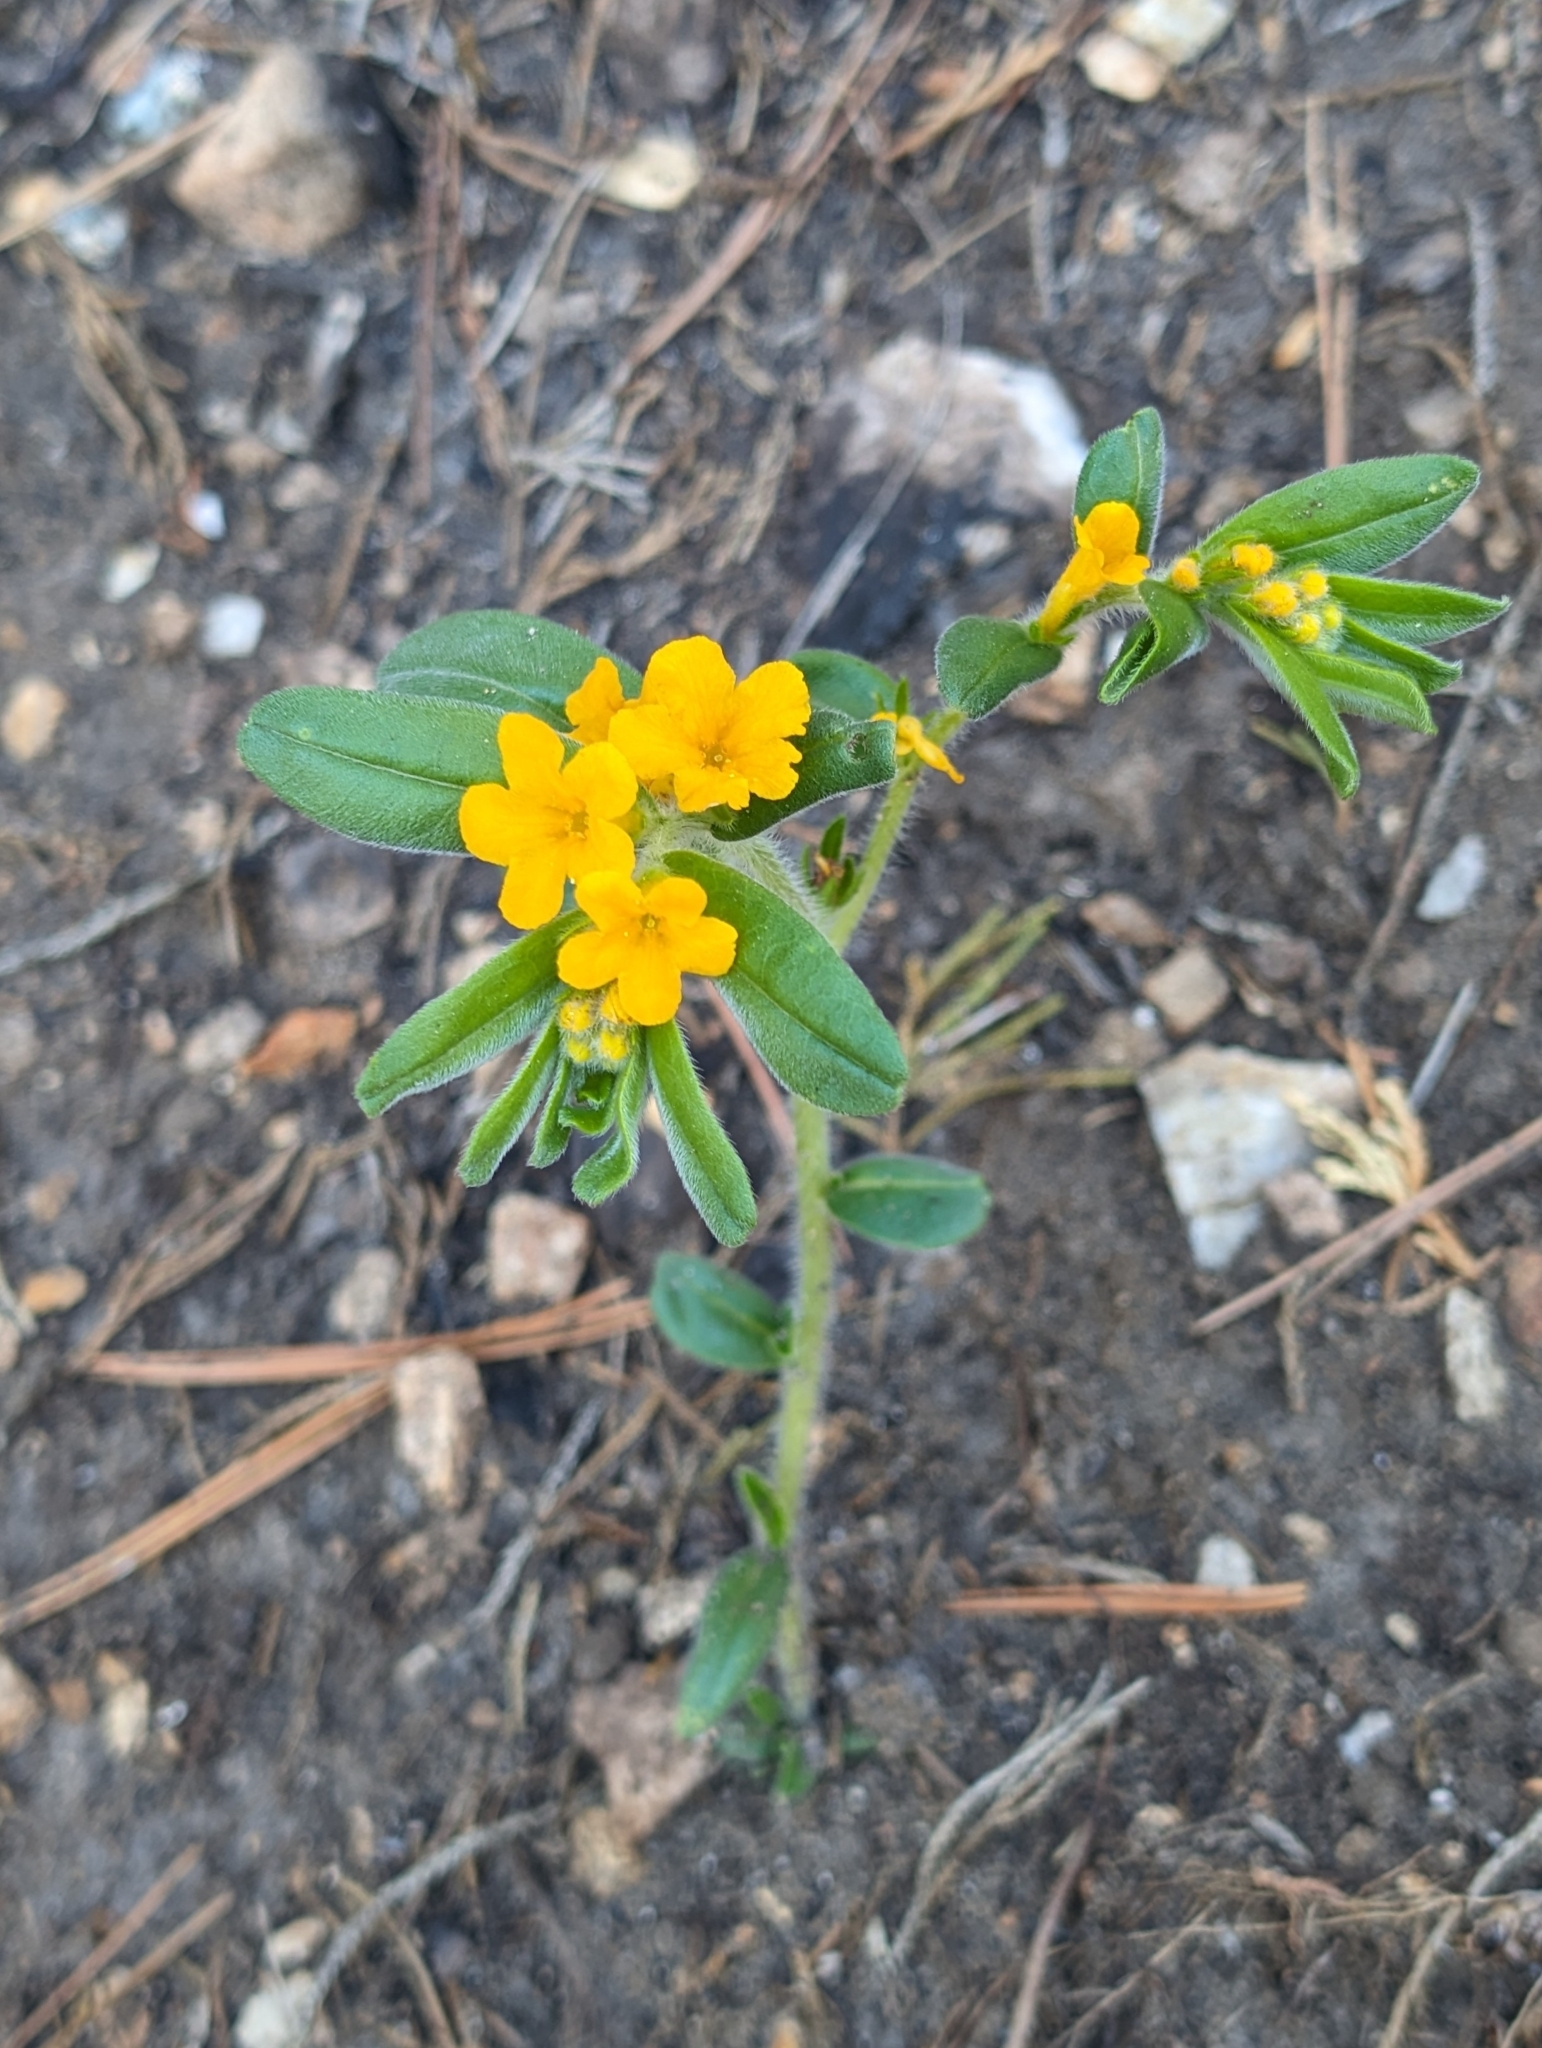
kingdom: Plantae
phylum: Tracheophyta
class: Magnoliopsida
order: Boraginales
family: Boraginaceae
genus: Lithospermum
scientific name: Lithospermum canescens
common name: Hoary puccoon
